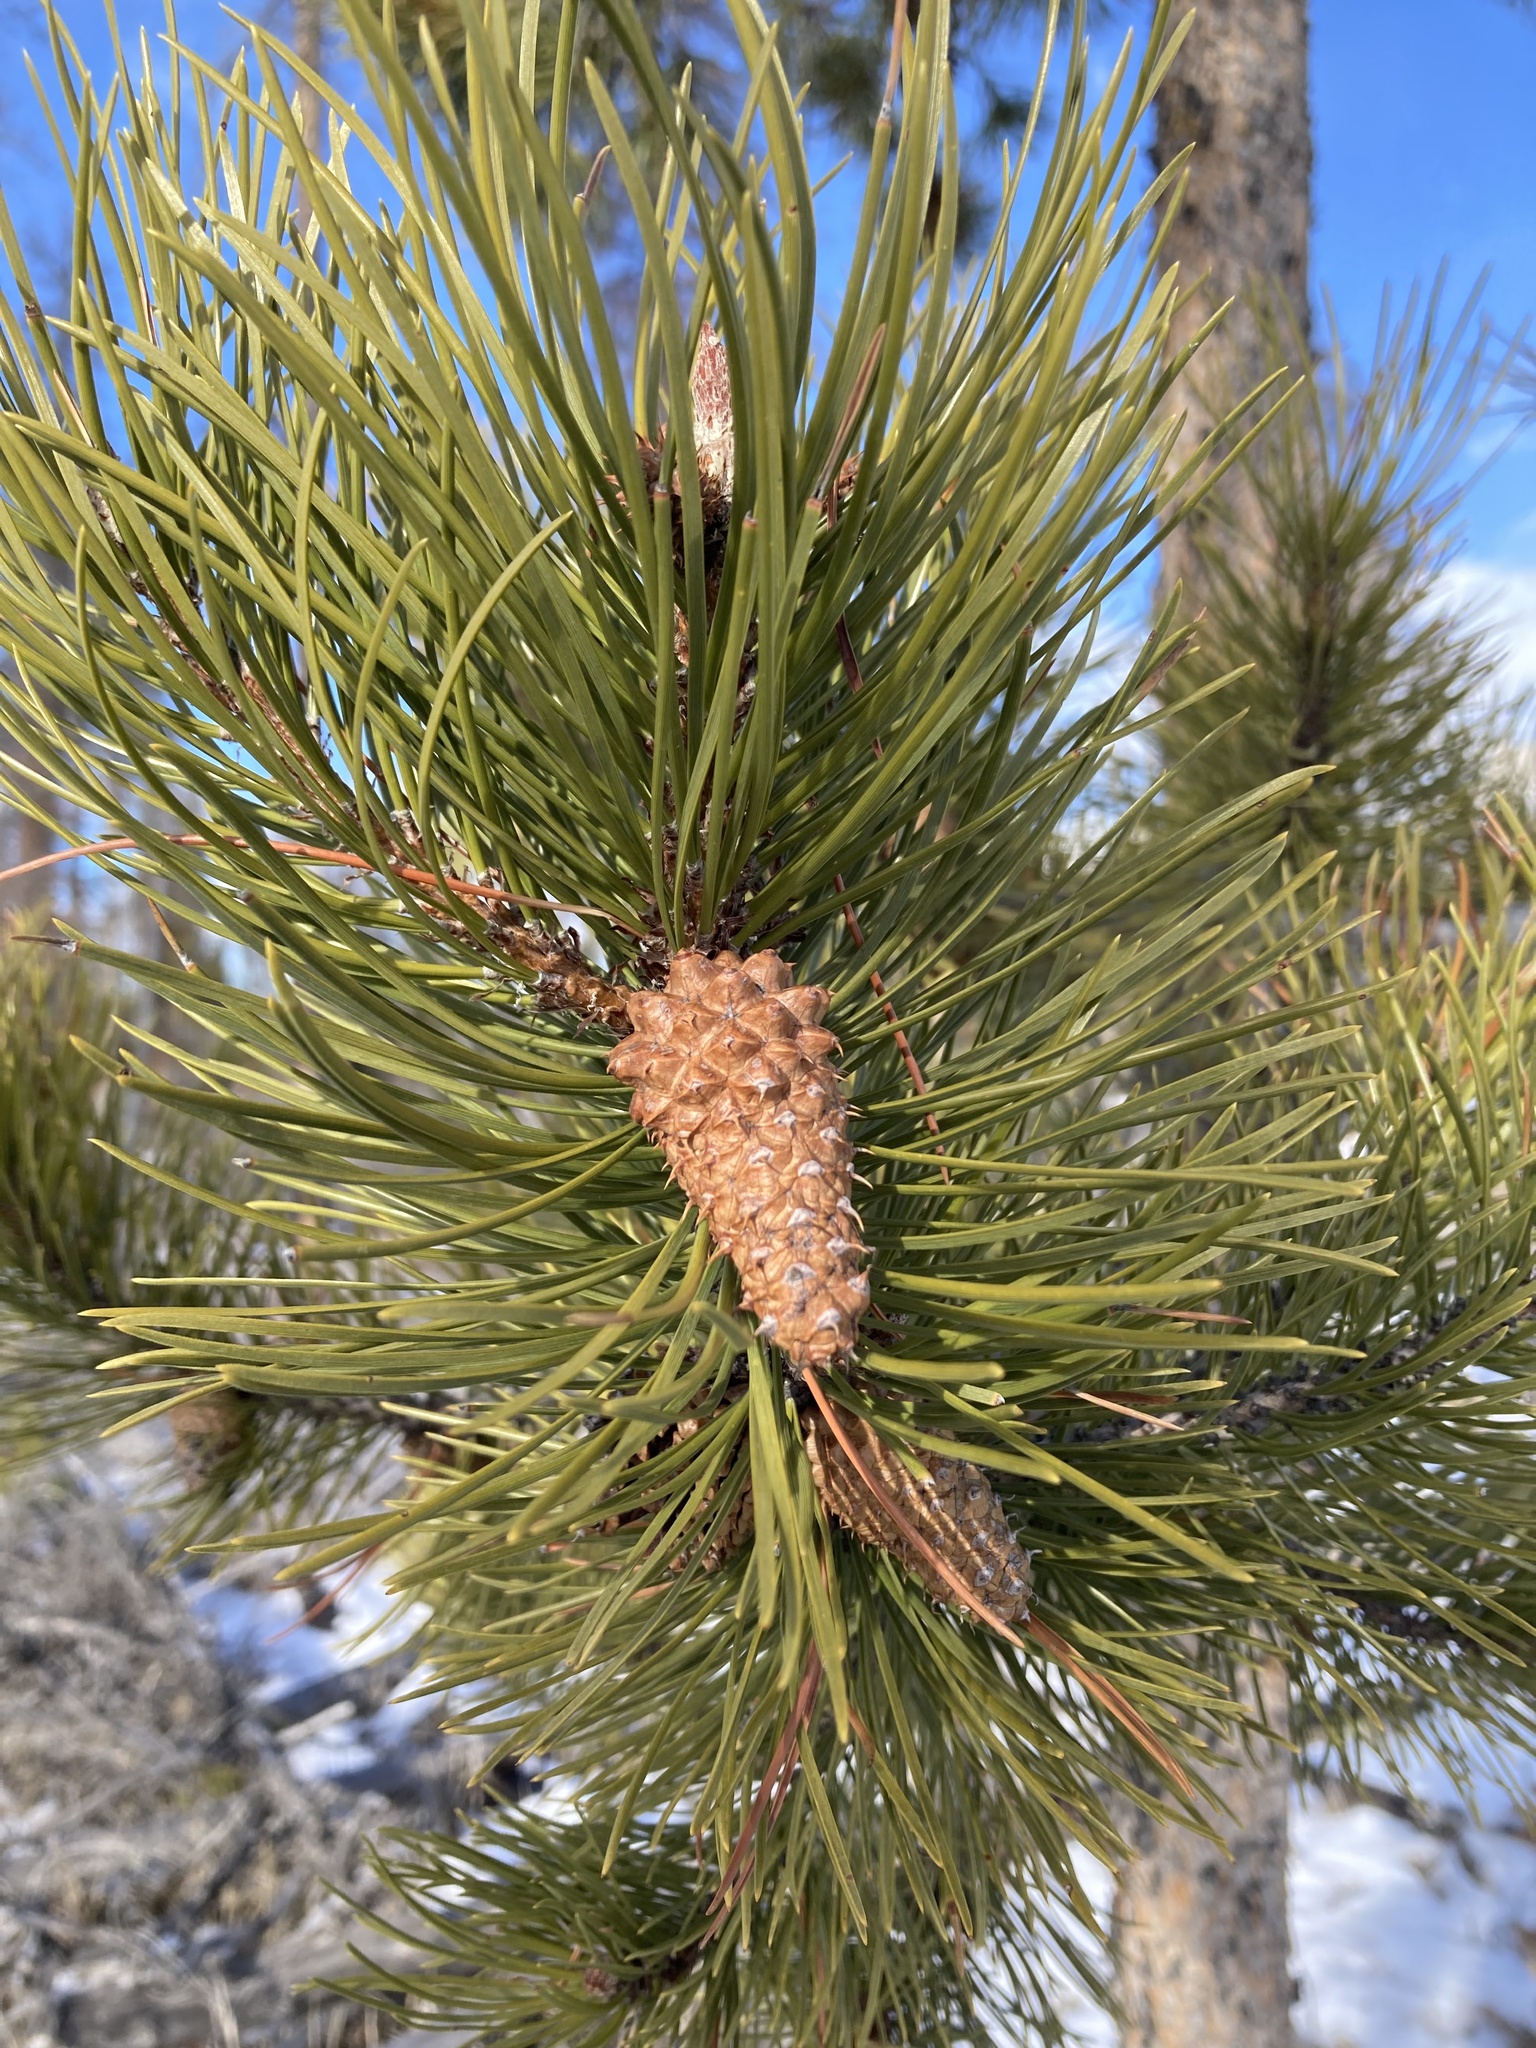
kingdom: Plantae
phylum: Tracheophyta
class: Pinopsida
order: Pinales
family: Pinaceae
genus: Pinus
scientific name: Pinus contorta
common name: Lodgepole pine
